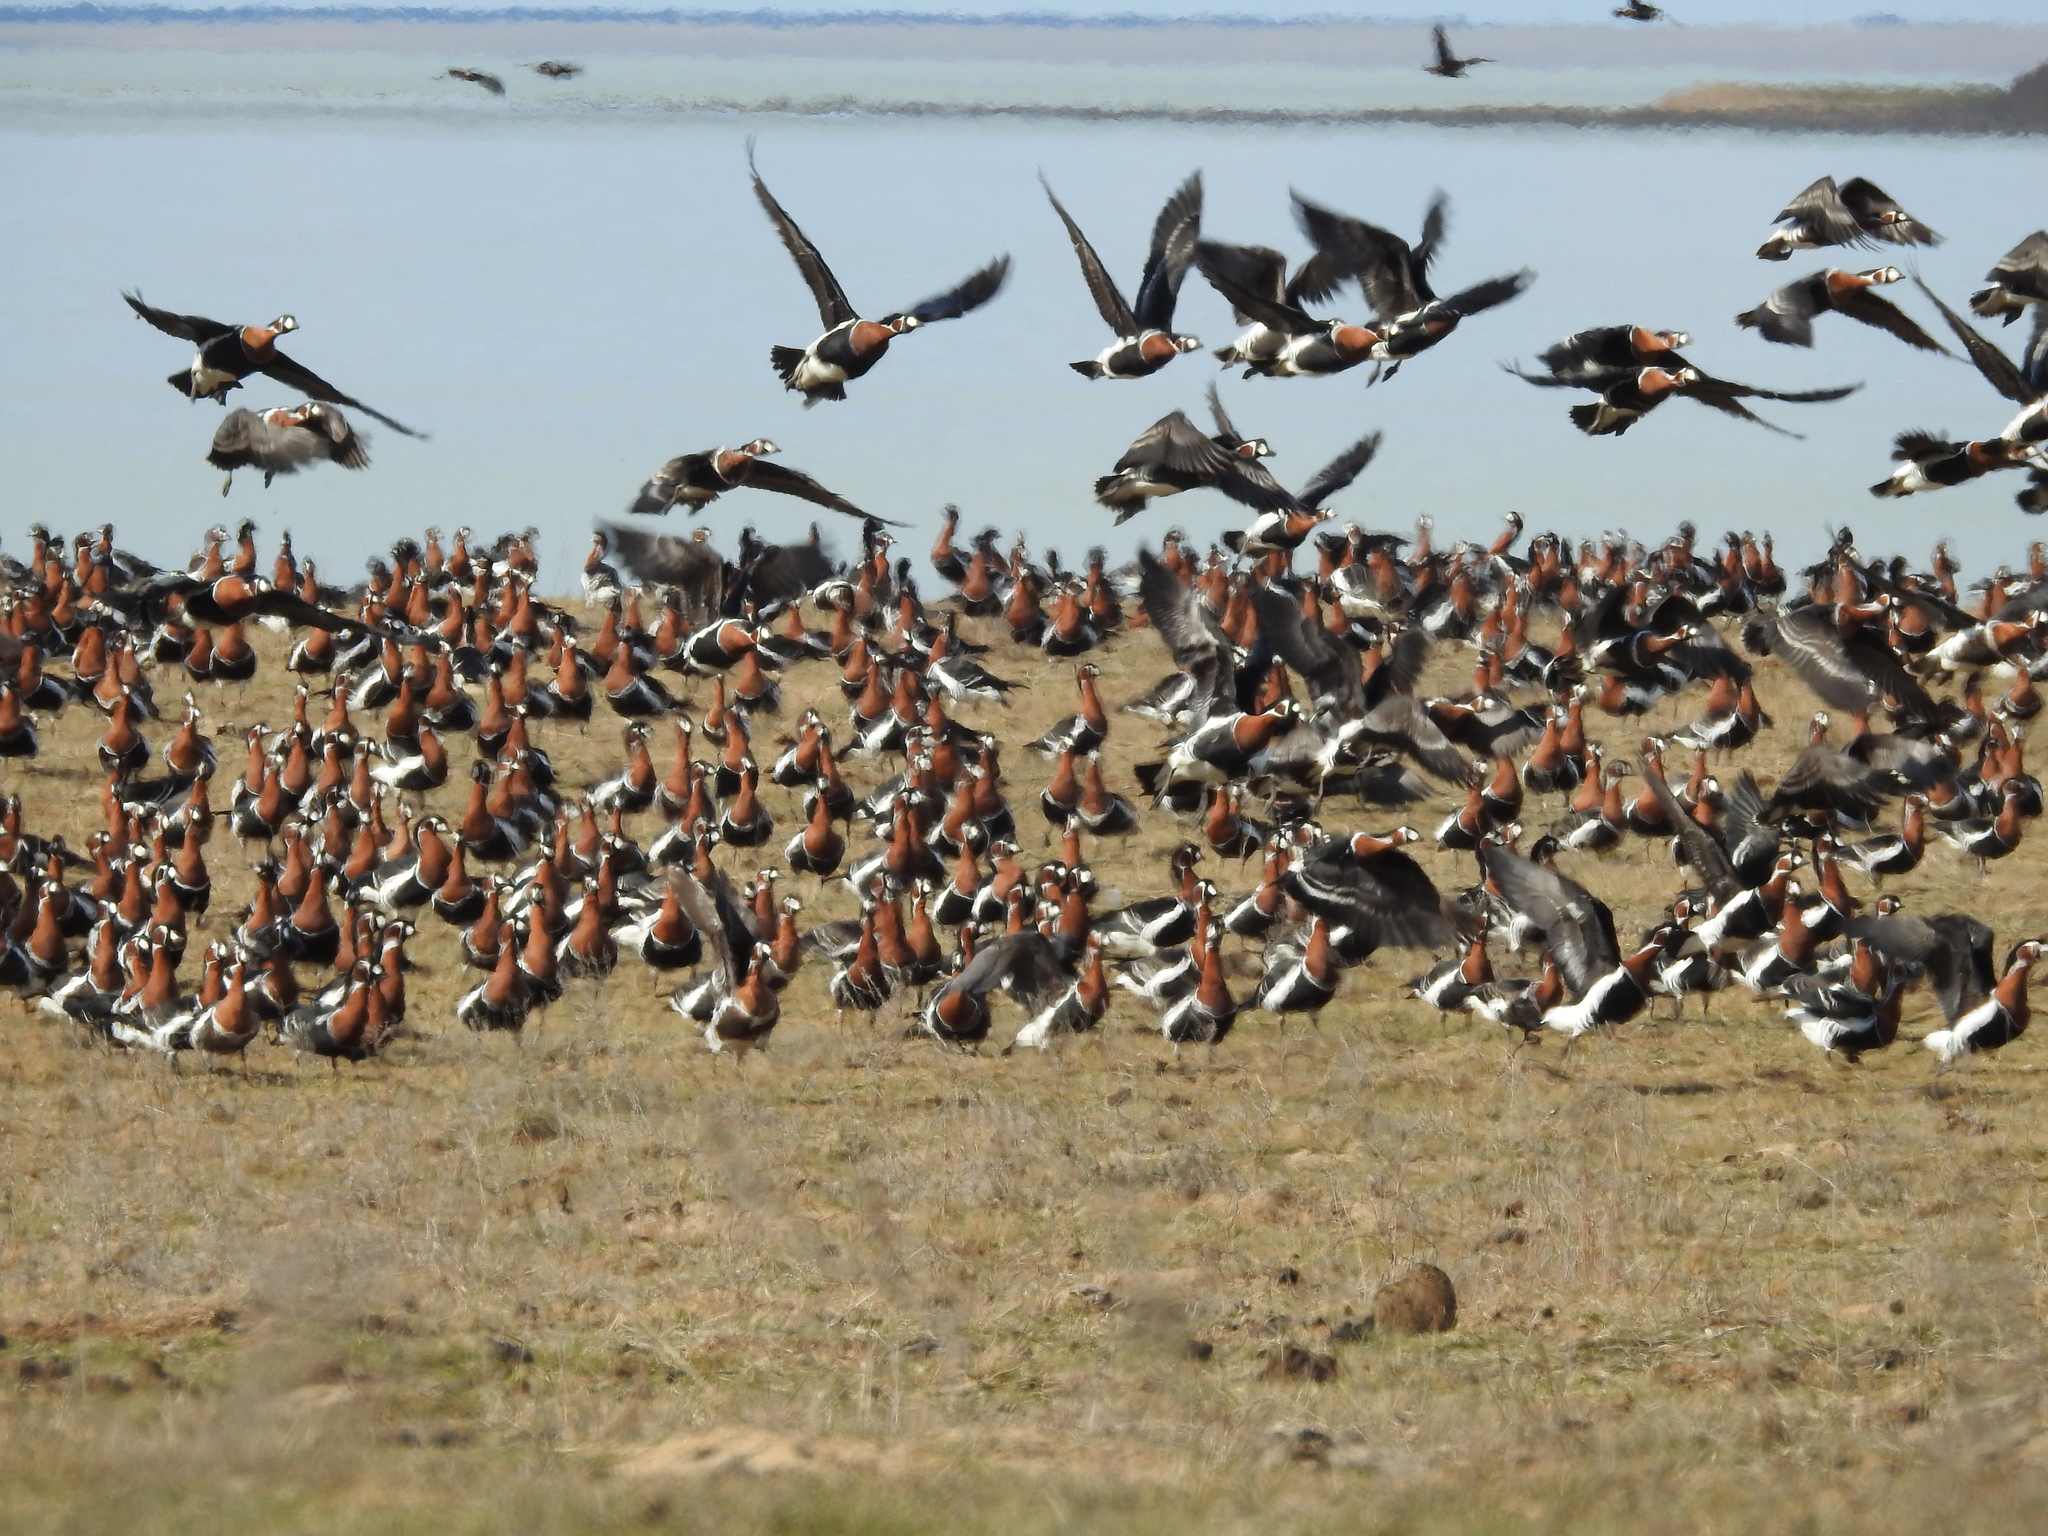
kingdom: Animalia
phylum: Chordata
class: Aves
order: Anseriformes
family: Anatidae
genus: Branta
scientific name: Branta ruficollis
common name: Red-breasted goose
